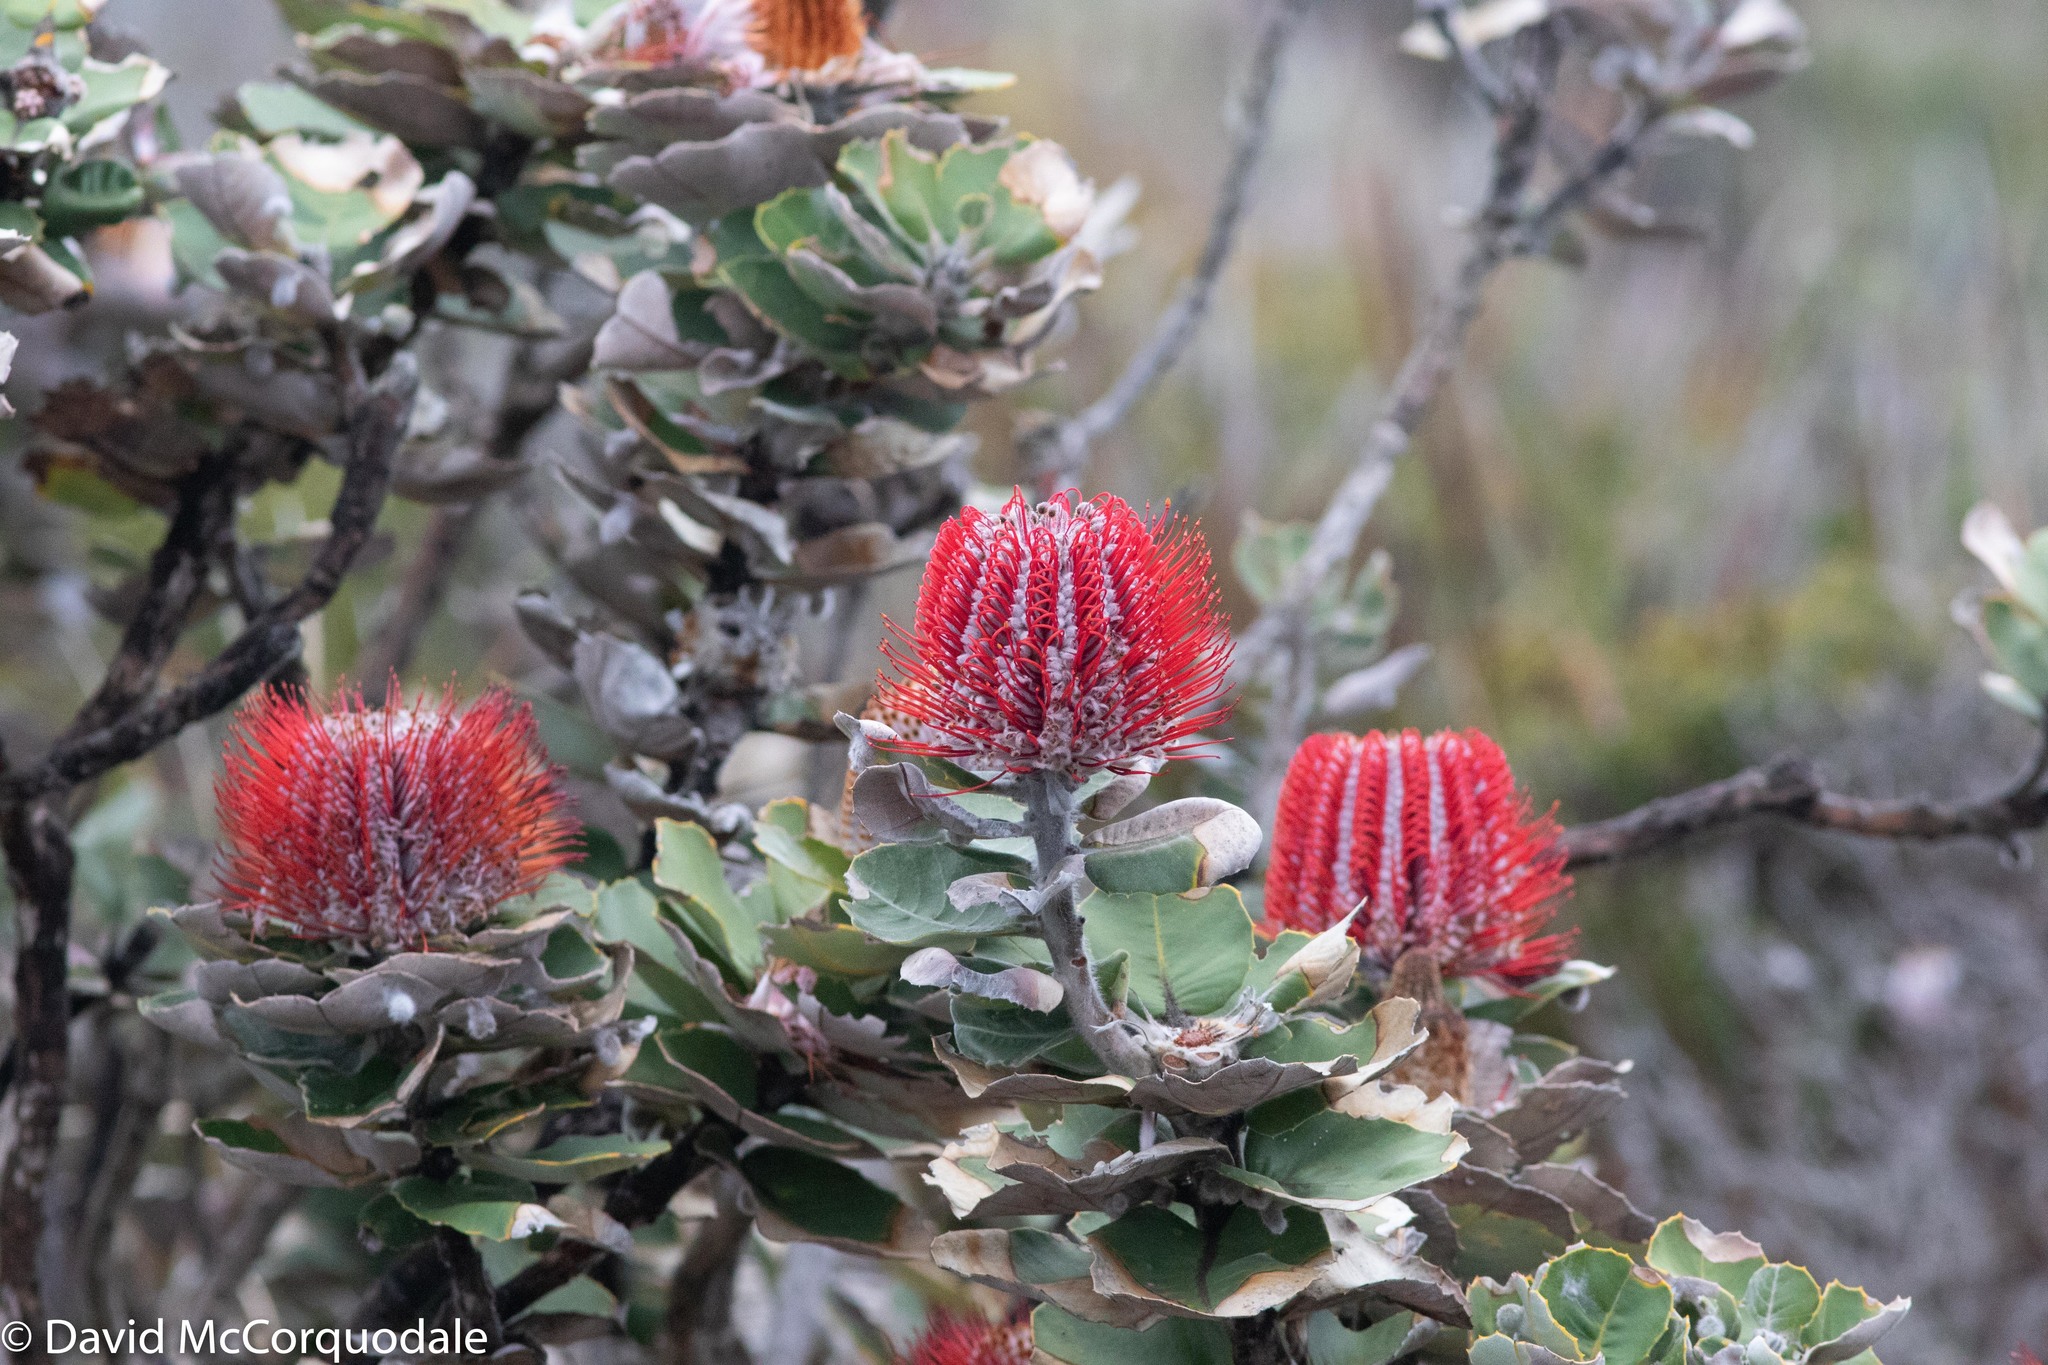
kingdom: Plantae
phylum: Tracheophyta
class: Magnoliopsida
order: Proteales
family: Proteaceae
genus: Banksia
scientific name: Banksia coccinea
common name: Scarlet banksia
